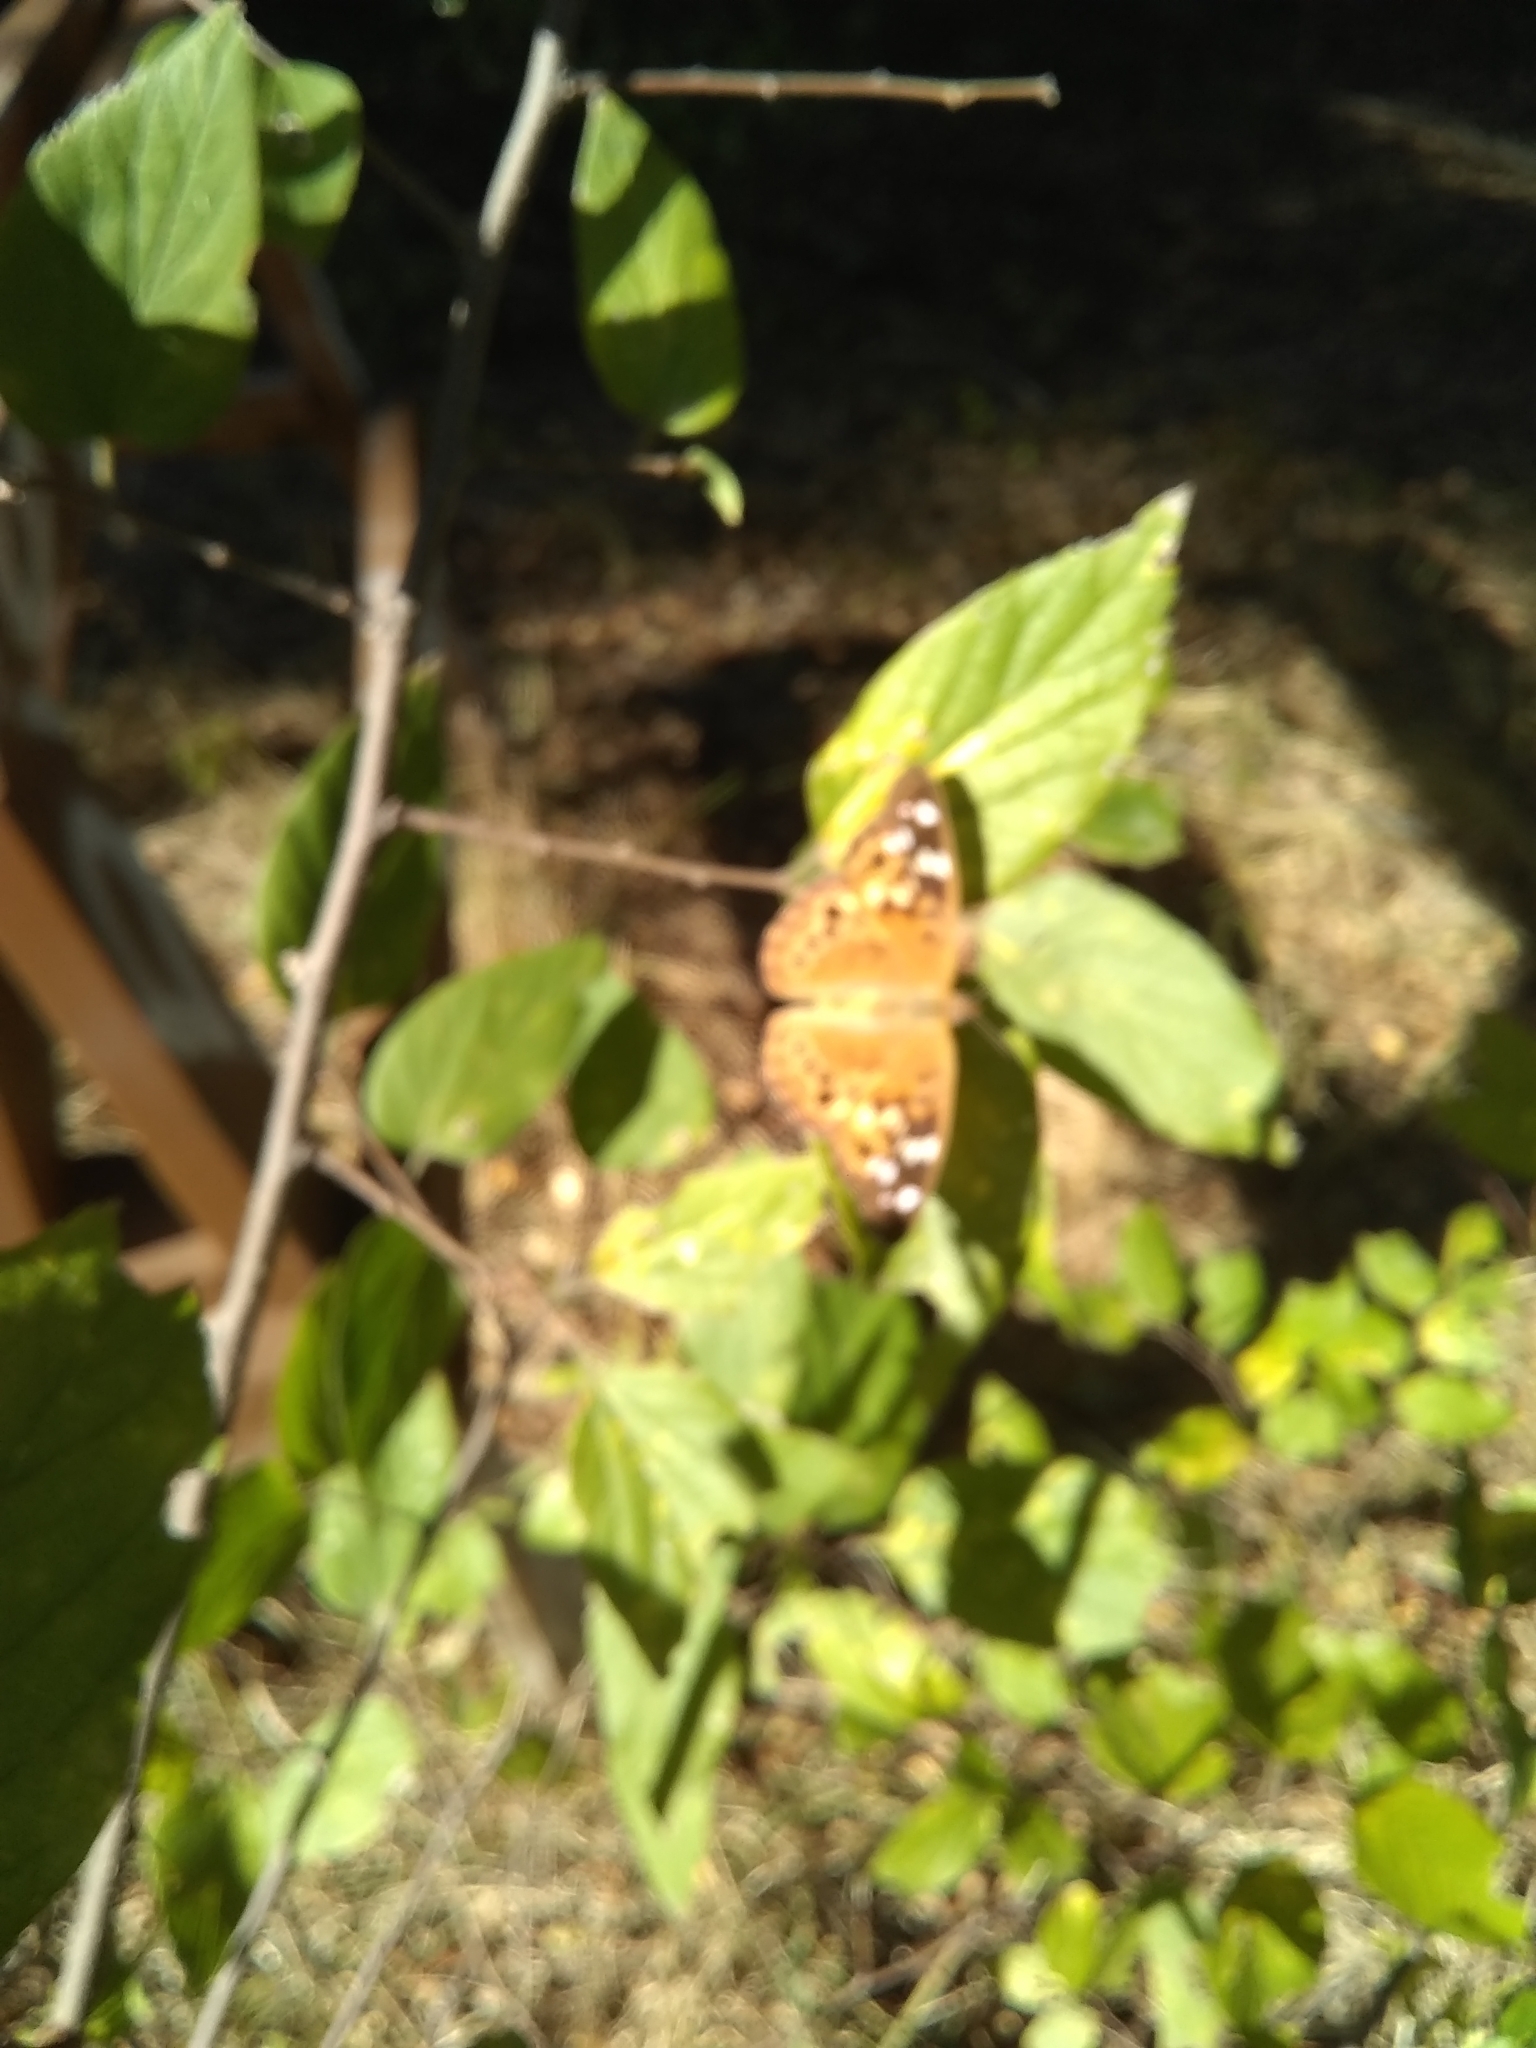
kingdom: Animalia
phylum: Arthropoda
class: Insecta
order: Lepidoptera
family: Nymphalidae
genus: Asterocampa
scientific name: Asterocampa celtis
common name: Hackberry emperor
